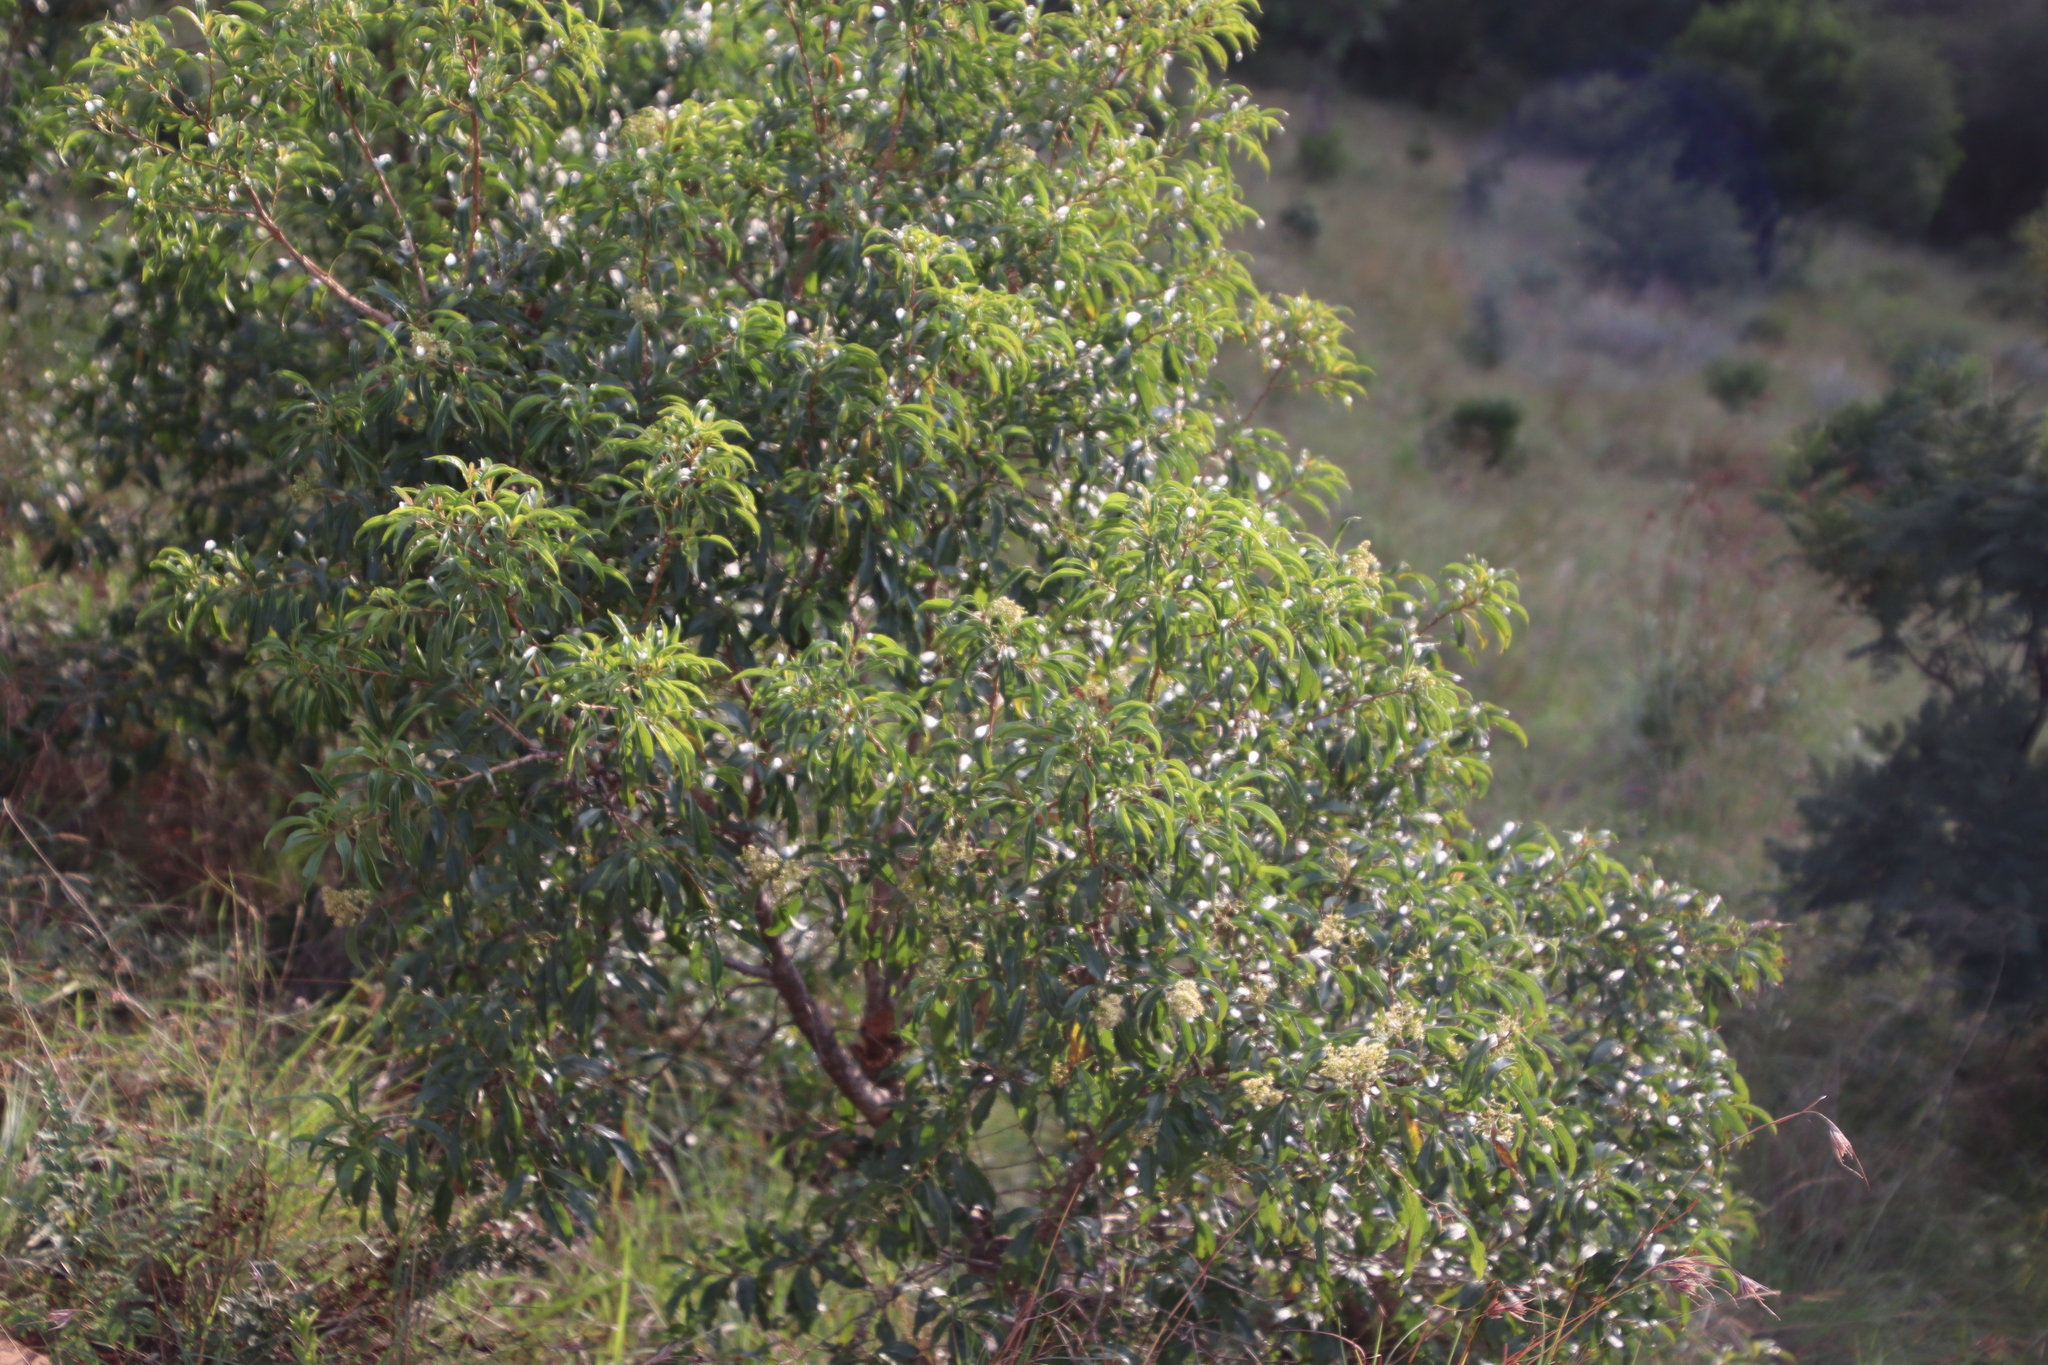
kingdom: Plantae
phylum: Tracheophyta
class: Magnoliopsida
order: Myrtales
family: Myrtaceae
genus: Heteropyxis
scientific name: Heteropyxis natalensis
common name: Lavender tree
